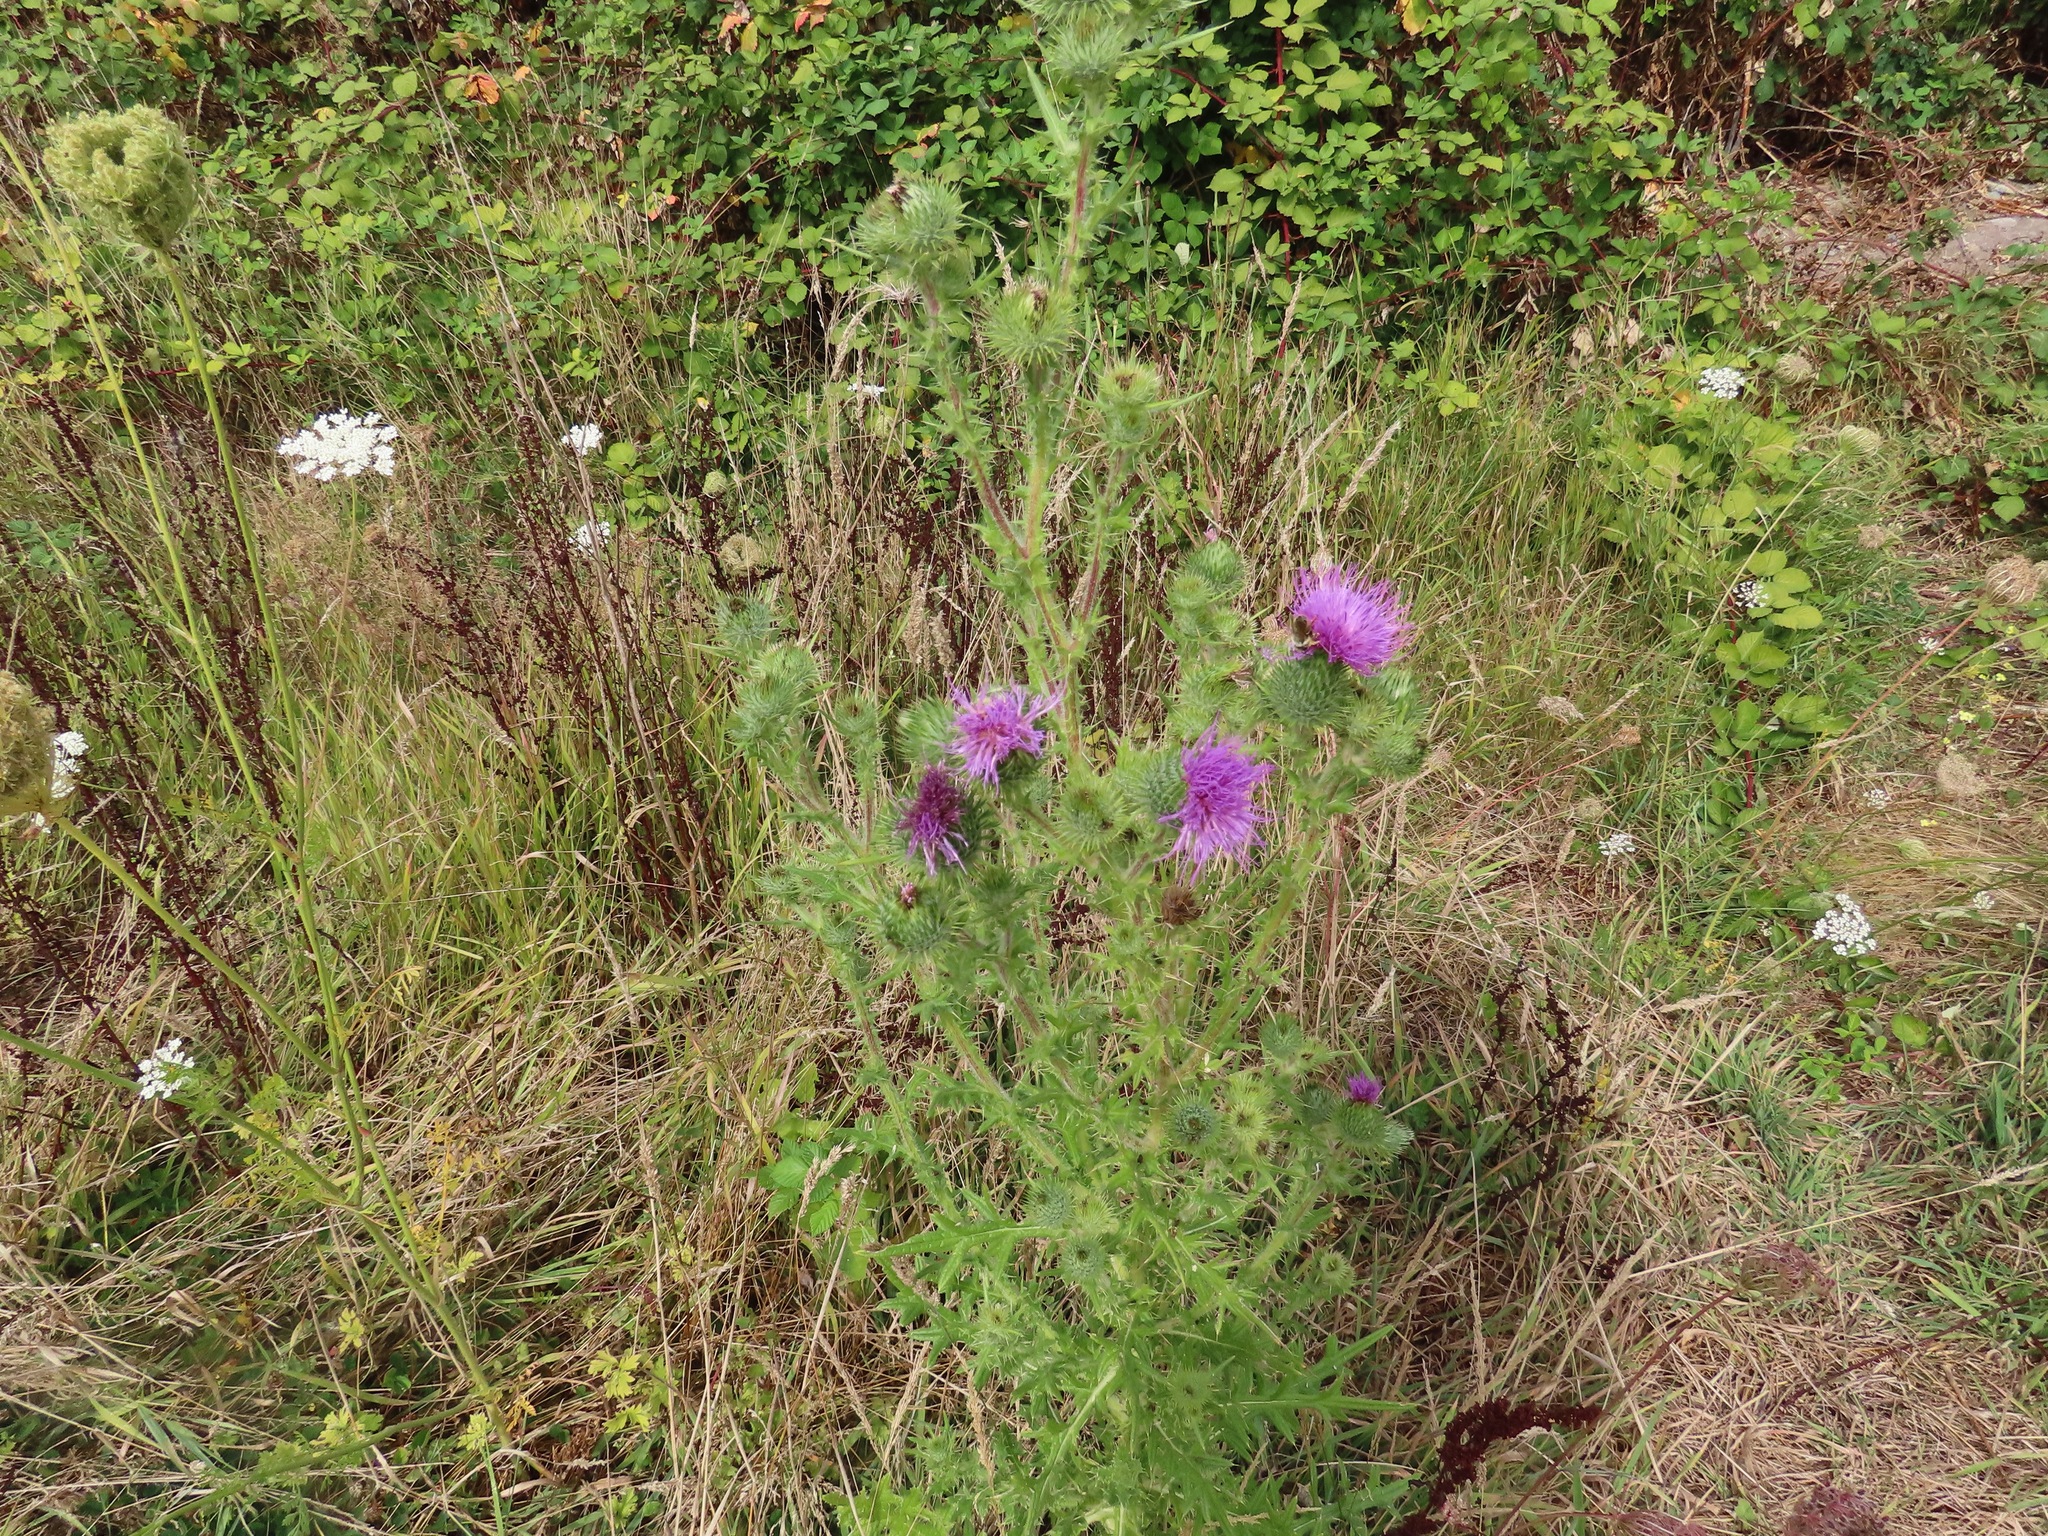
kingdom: Plantae
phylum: Tracheophyta
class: Magnoliopsida
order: Asterales
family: Asteraceae
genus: Cirsium
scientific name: Cirsium vulgare
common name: Bull thistle
